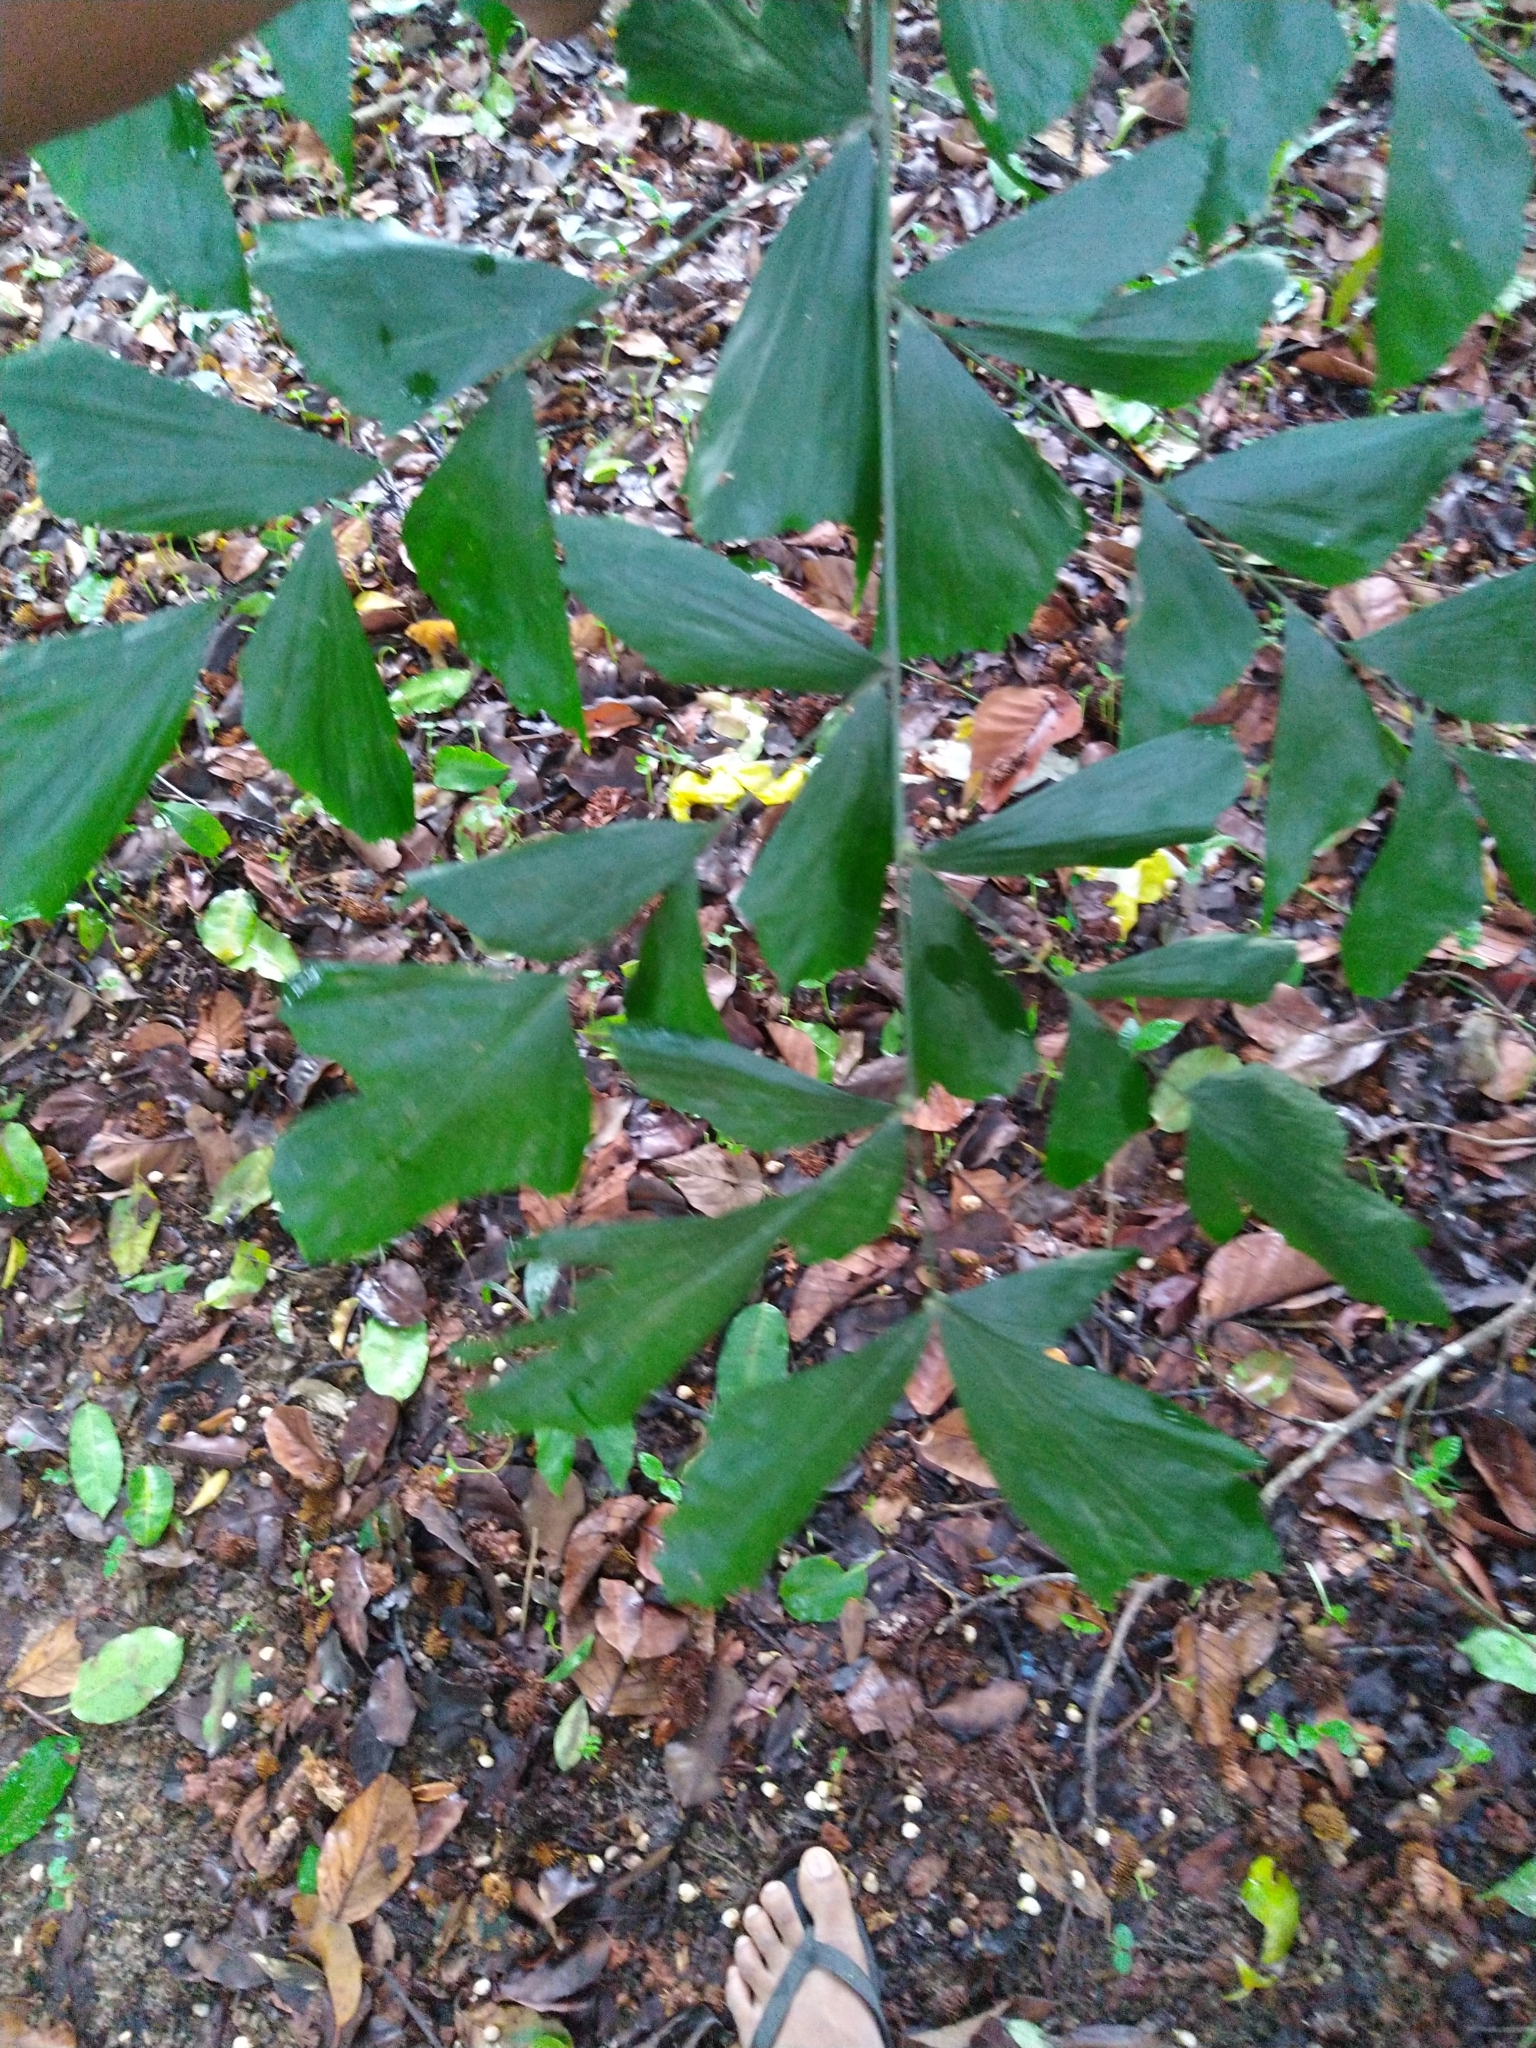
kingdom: Plantae
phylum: Tracheophyta
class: Liliopsida
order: Arecales
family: Arecaceae
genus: Caryota
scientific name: Caryota urens
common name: Jaggery palm
